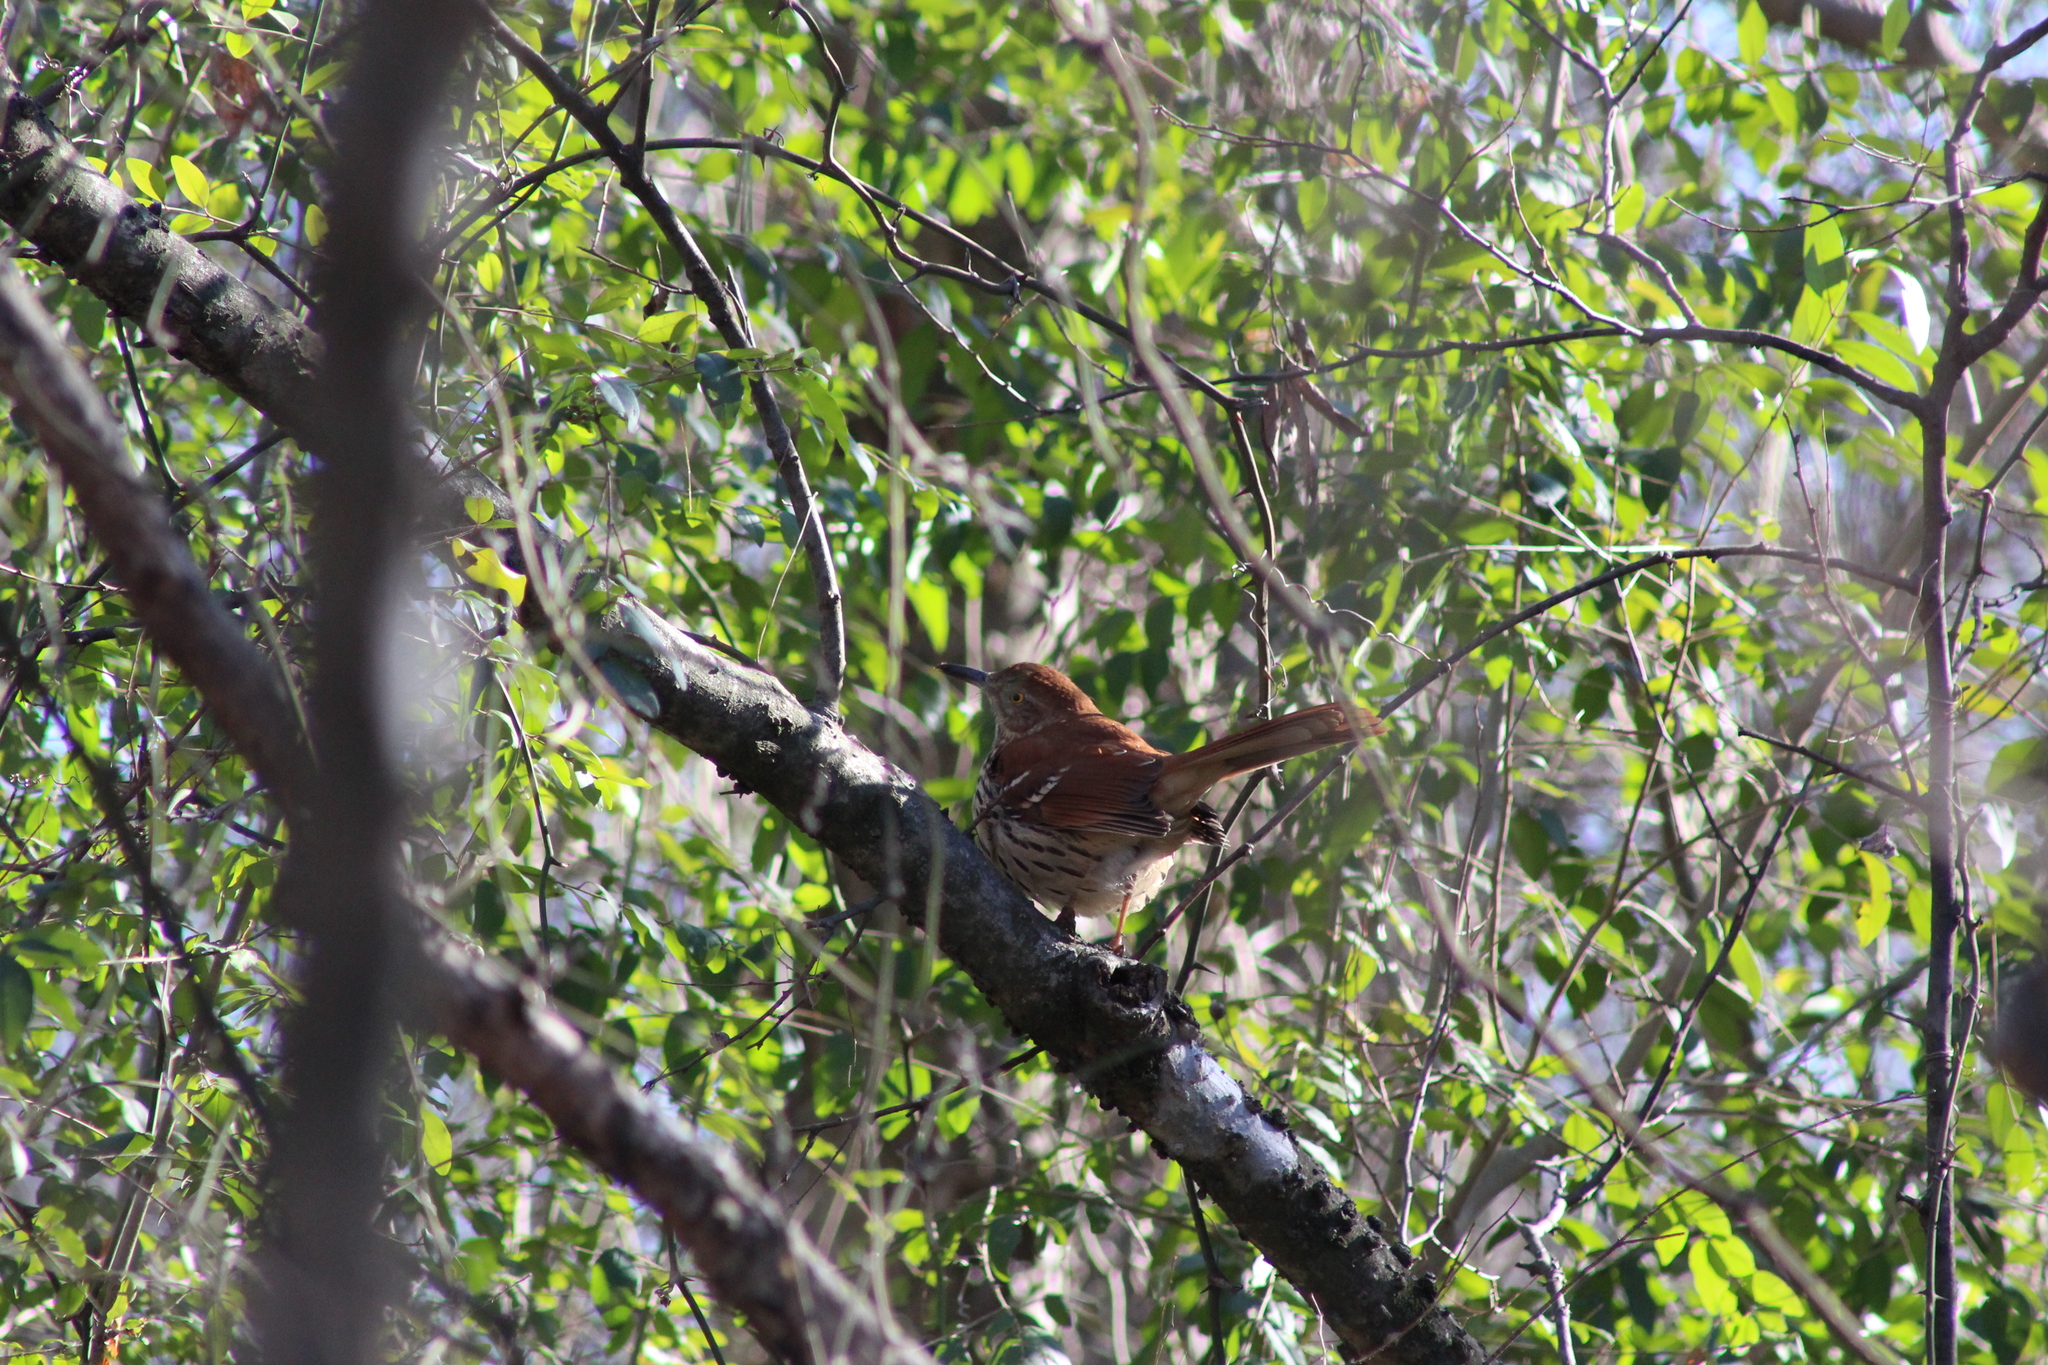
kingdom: Animalia
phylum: Chordata
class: Aves
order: Passeriformes
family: Mimidae
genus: Toxostoma
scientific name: Toxostoma rufum
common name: Brown thrasher
